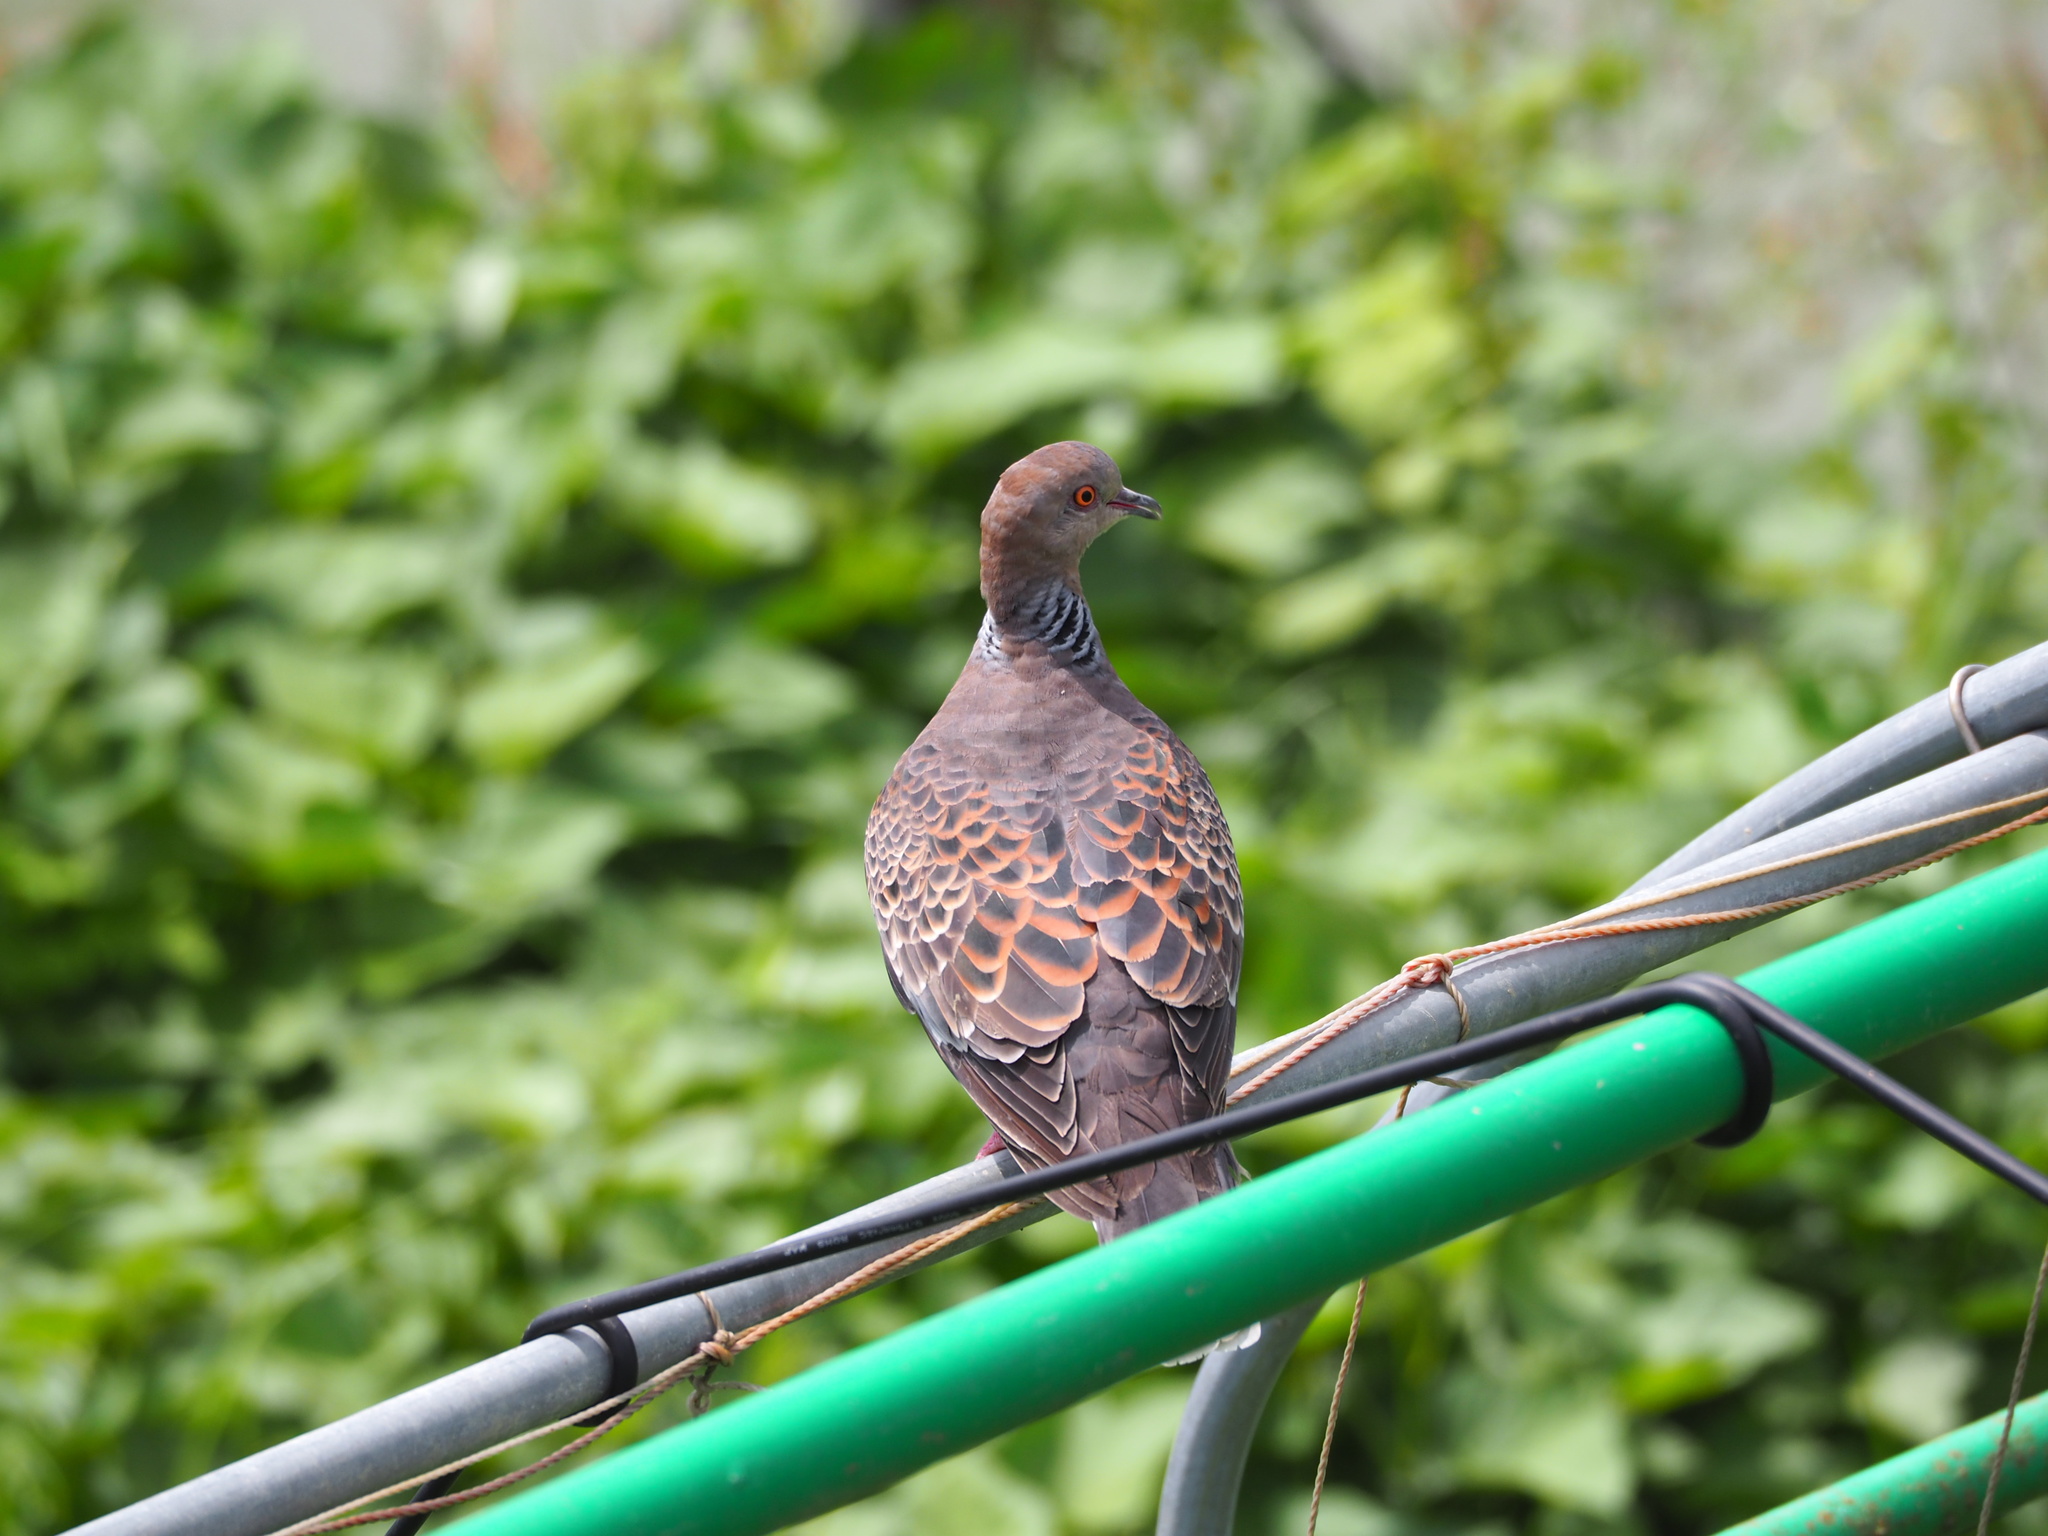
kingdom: Animalia
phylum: Chordata
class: Aves
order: Columbiformes
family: Columbidae
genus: Streptopelia
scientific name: Streptopelia orientalis
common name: Oriental turtle dove
